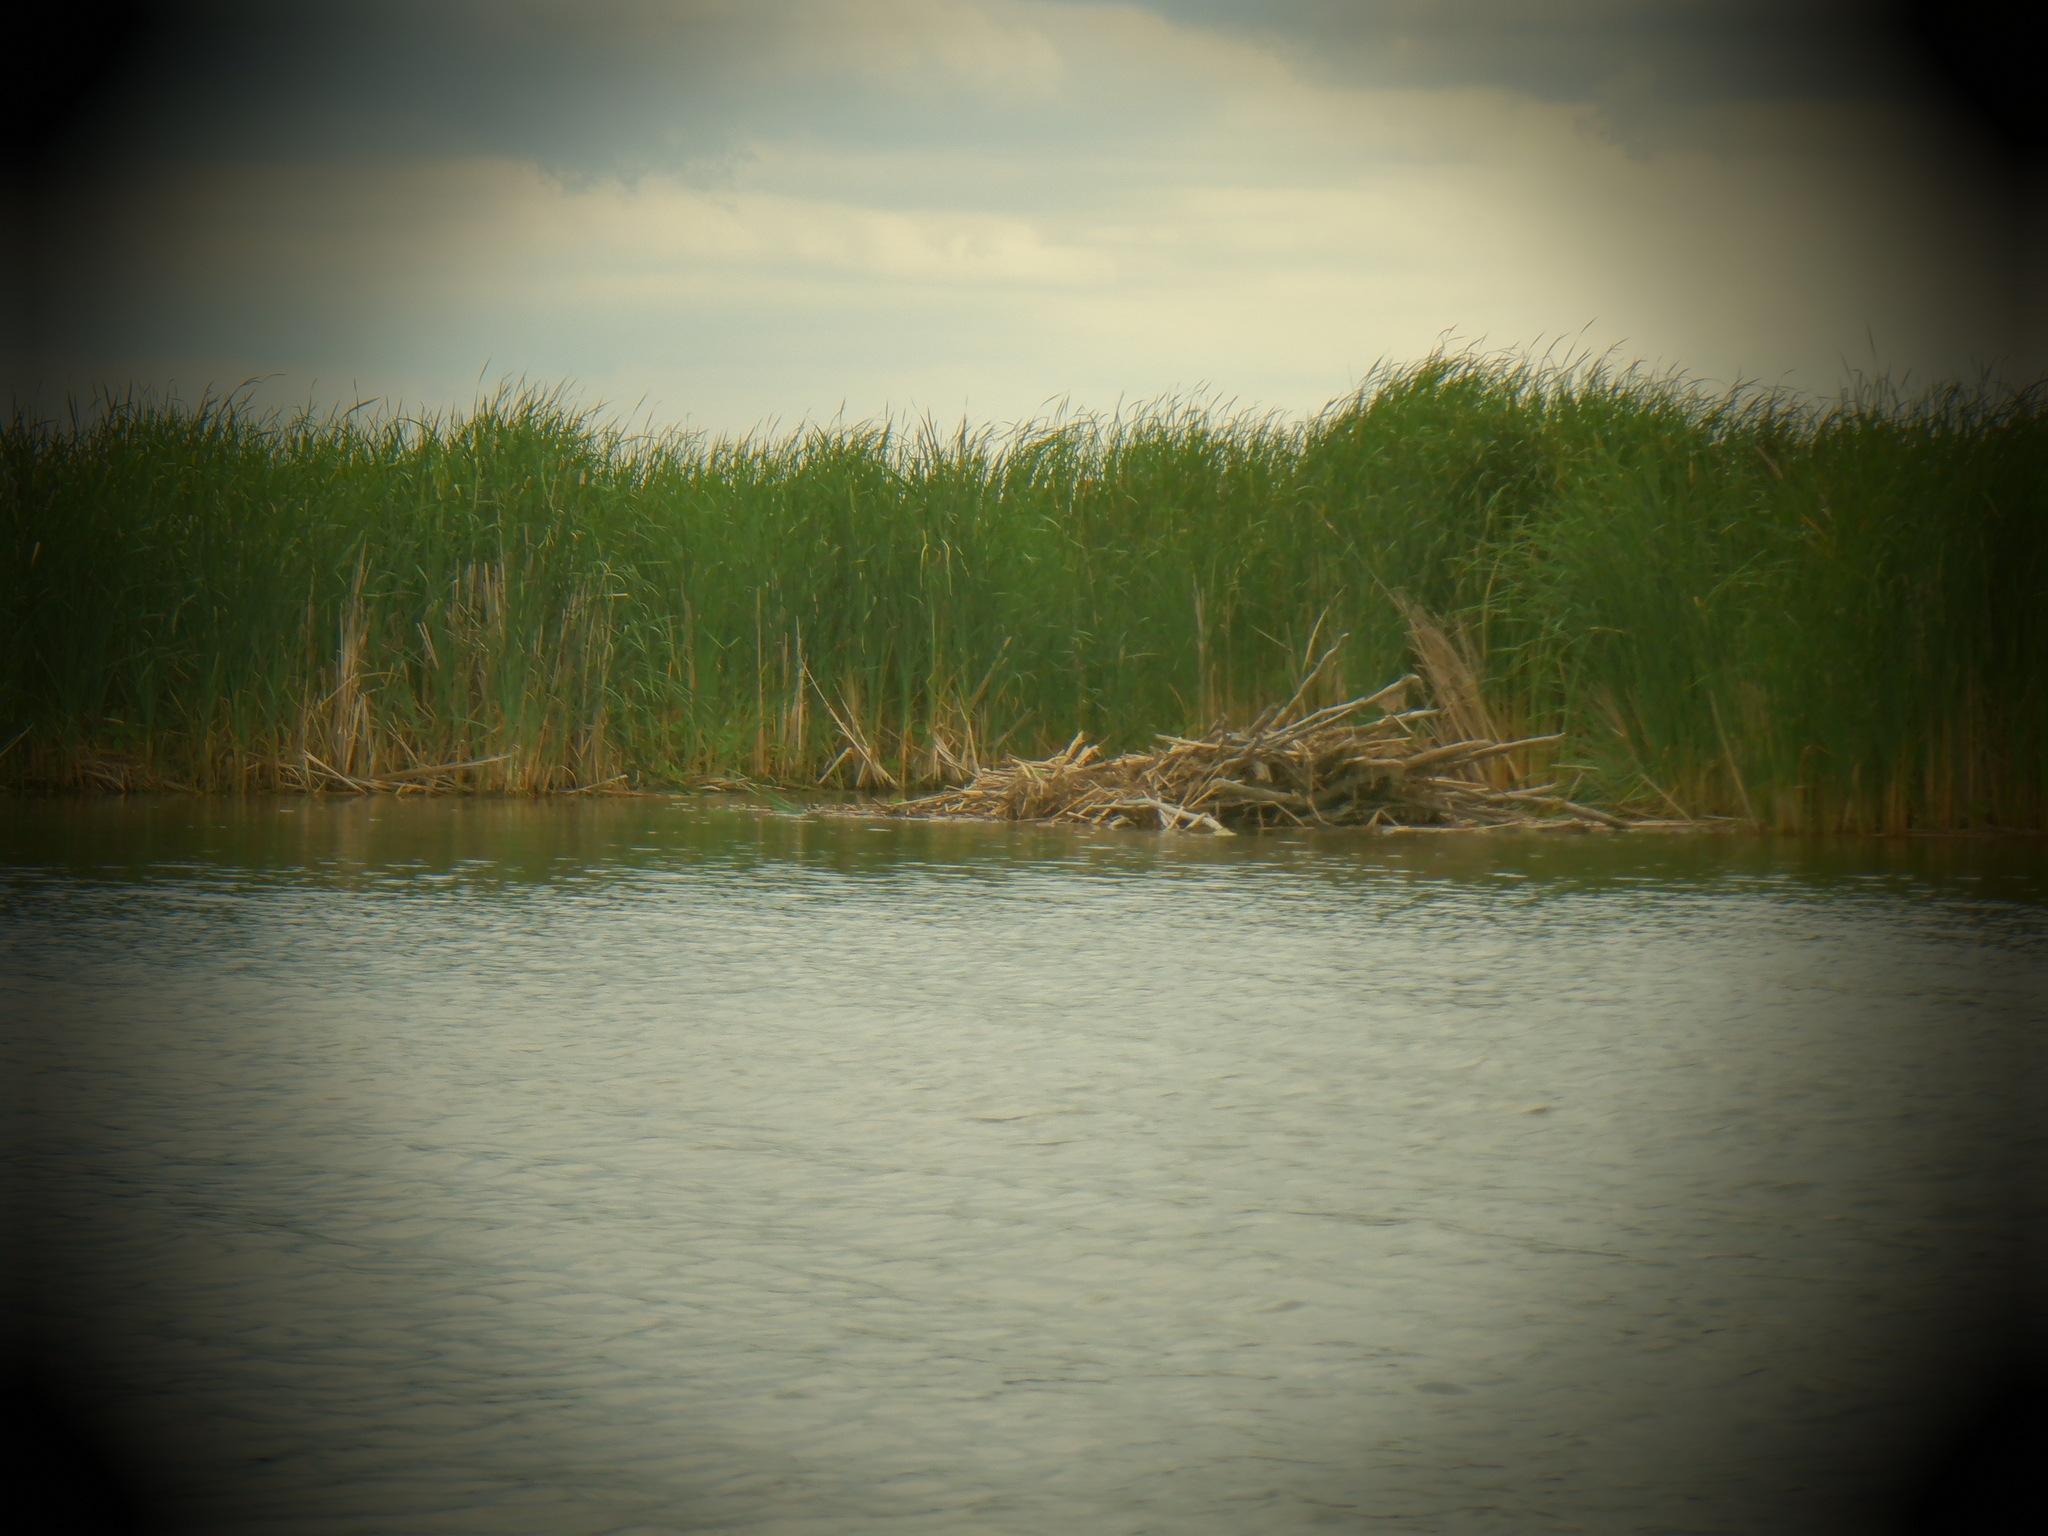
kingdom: Animalia
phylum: Chordata
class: Mammalia
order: Rodentia
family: Castoridae
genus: Castor
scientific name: Castor canadensis
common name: American beaver
